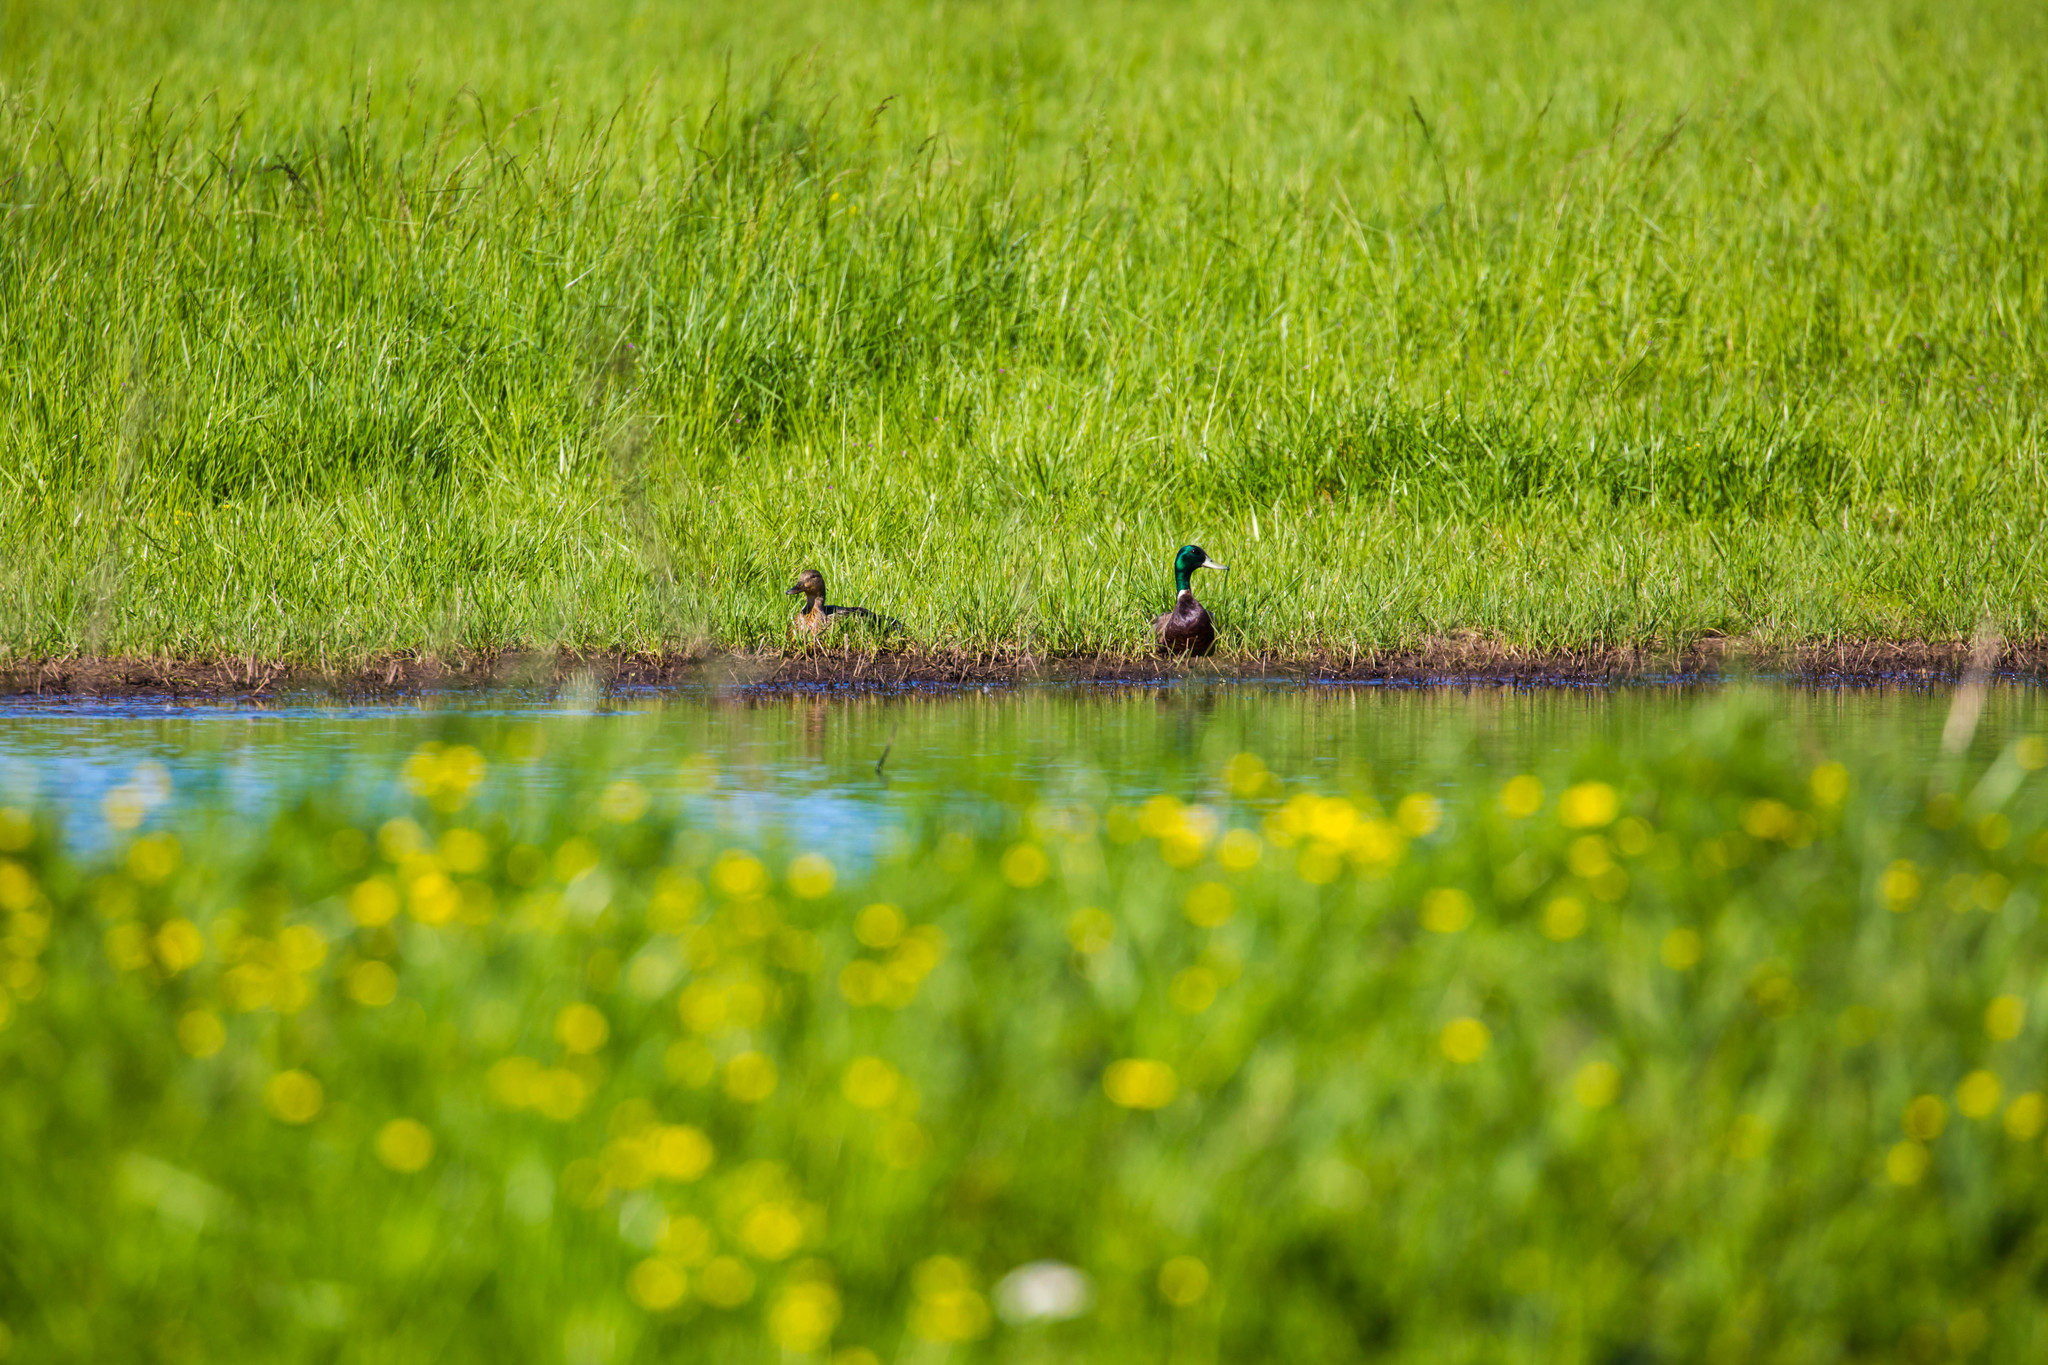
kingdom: Animalia
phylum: Chordata
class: Aves
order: Anseriformes
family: Anatidae
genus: Anas
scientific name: Anas platyrhynchos
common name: Mallard
